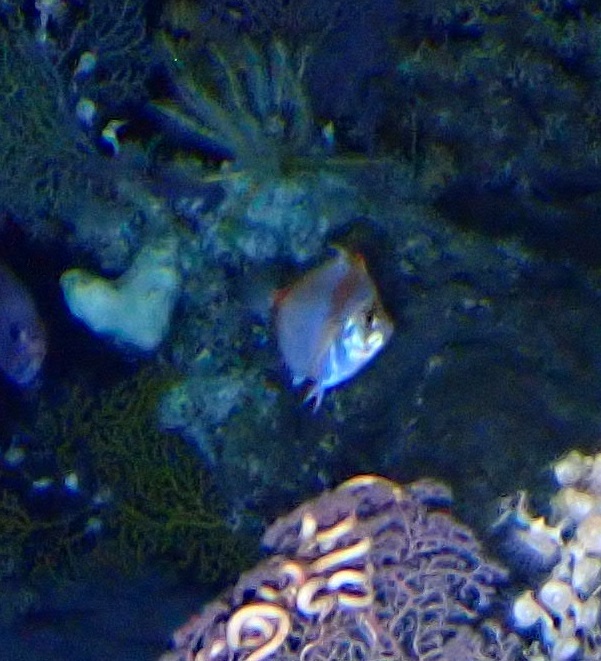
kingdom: Animalia
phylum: Chordata
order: Perciformes
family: Caproidae
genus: Antigonia
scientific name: Antigonia capros
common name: Deepbody boarfish
